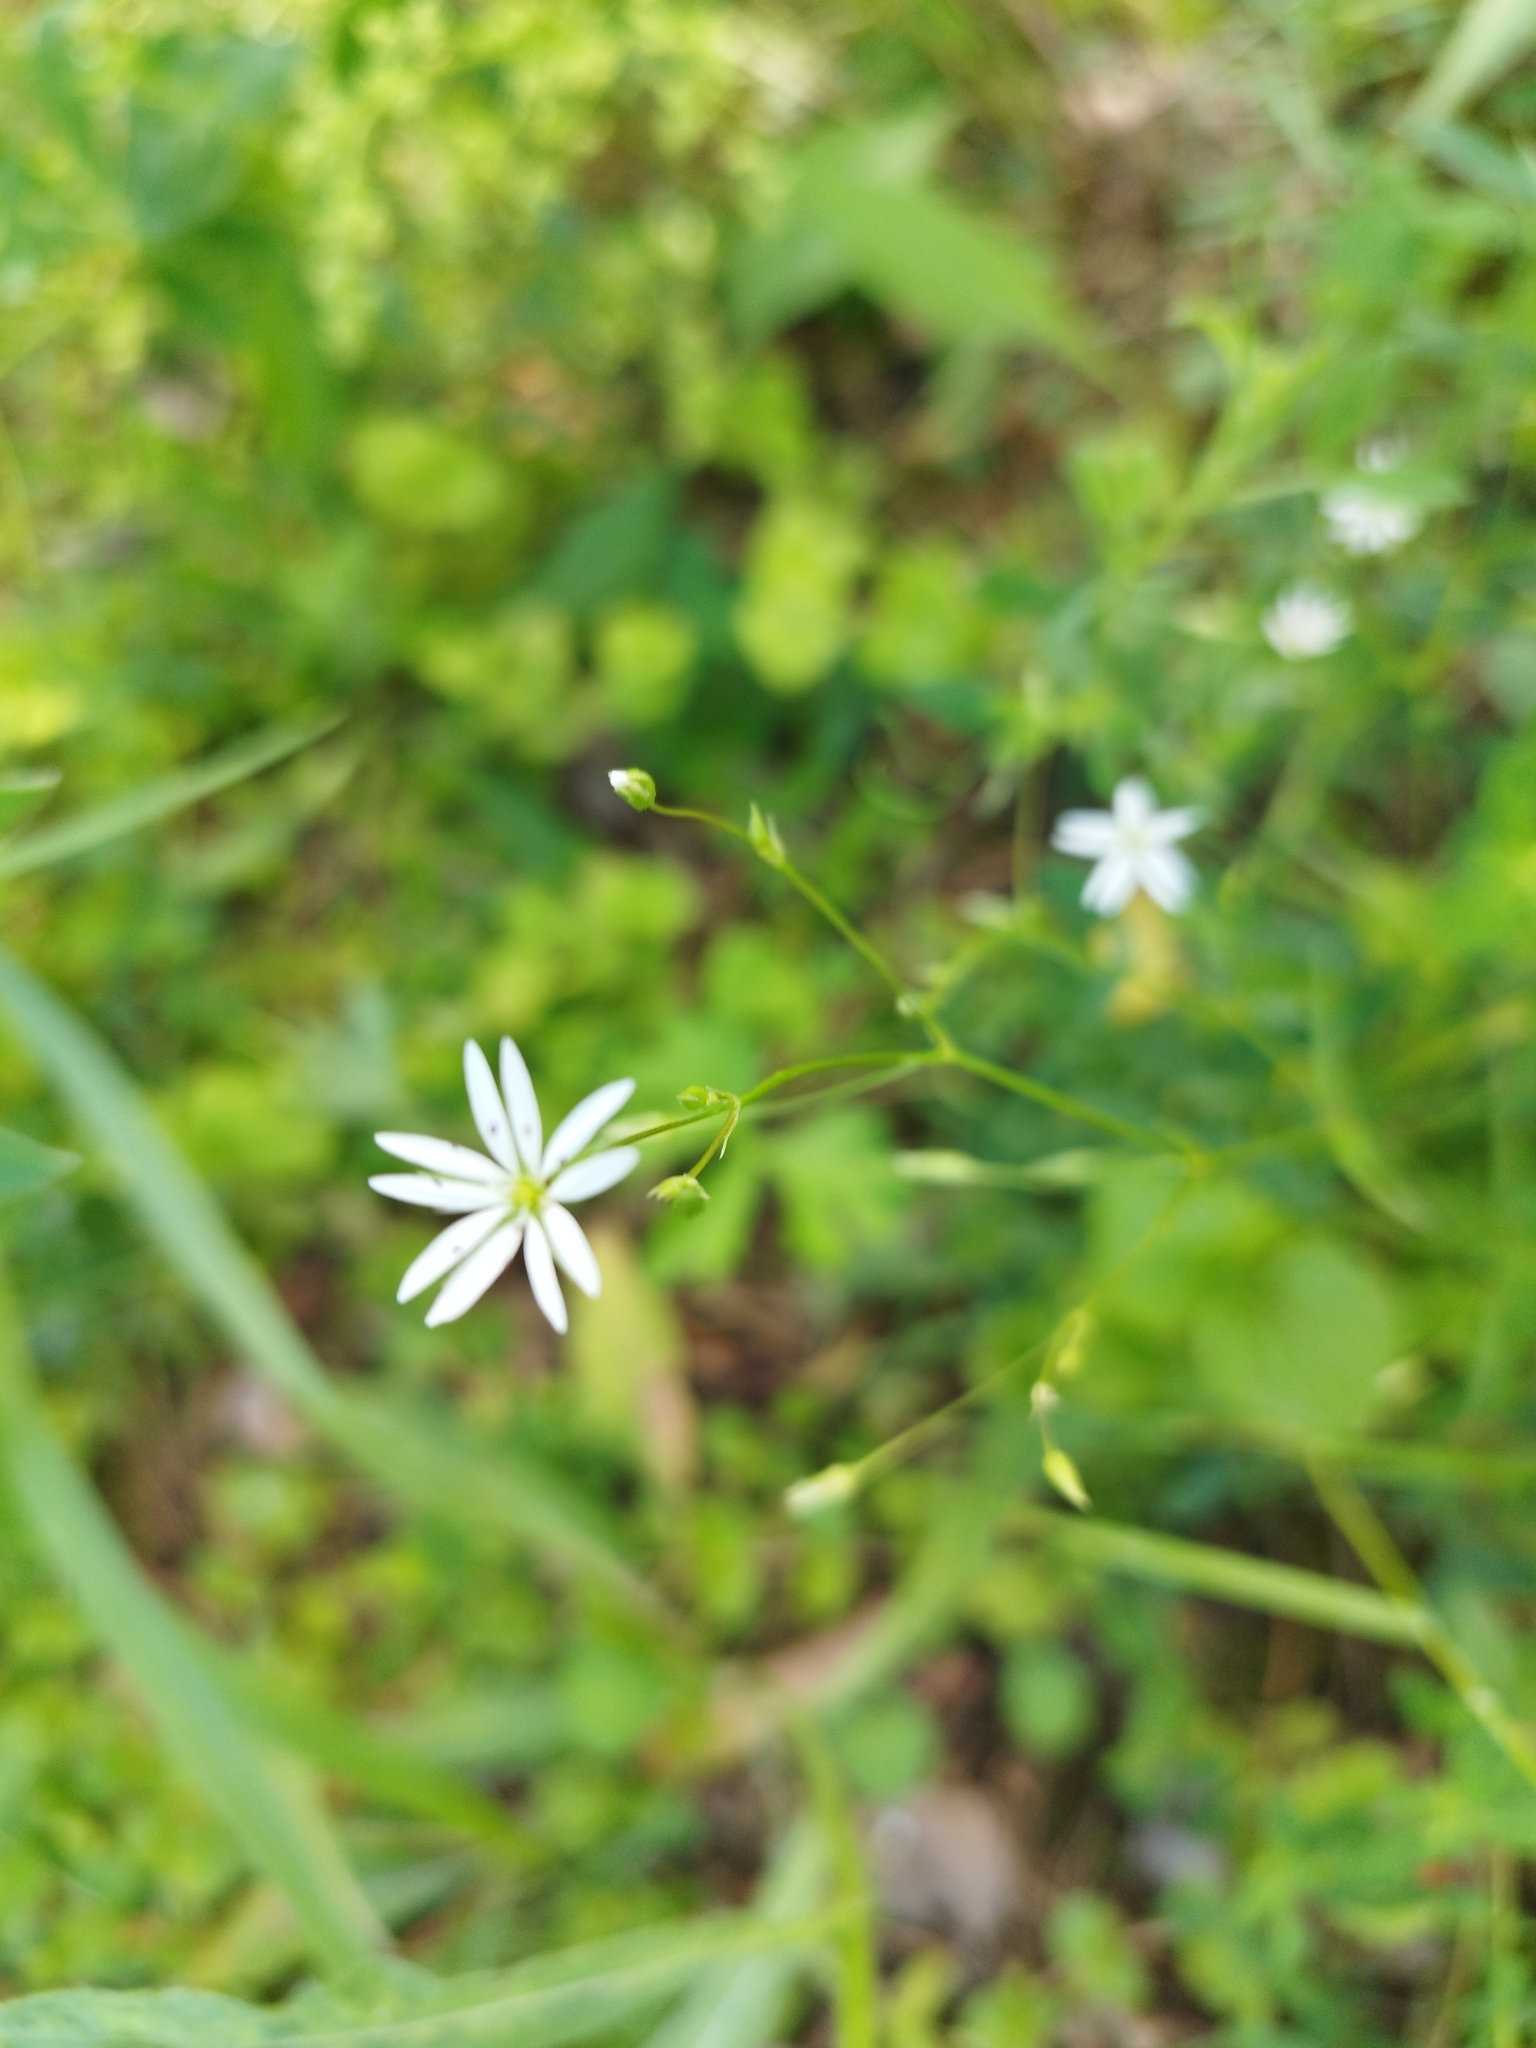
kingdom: Plantae
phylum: Tracheophyta
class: Magnoliopsida
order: Caryophyllales
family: Caryophyllaceae
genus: Stellaria
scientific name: Stellaria graminea
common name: Grass-like starwort
